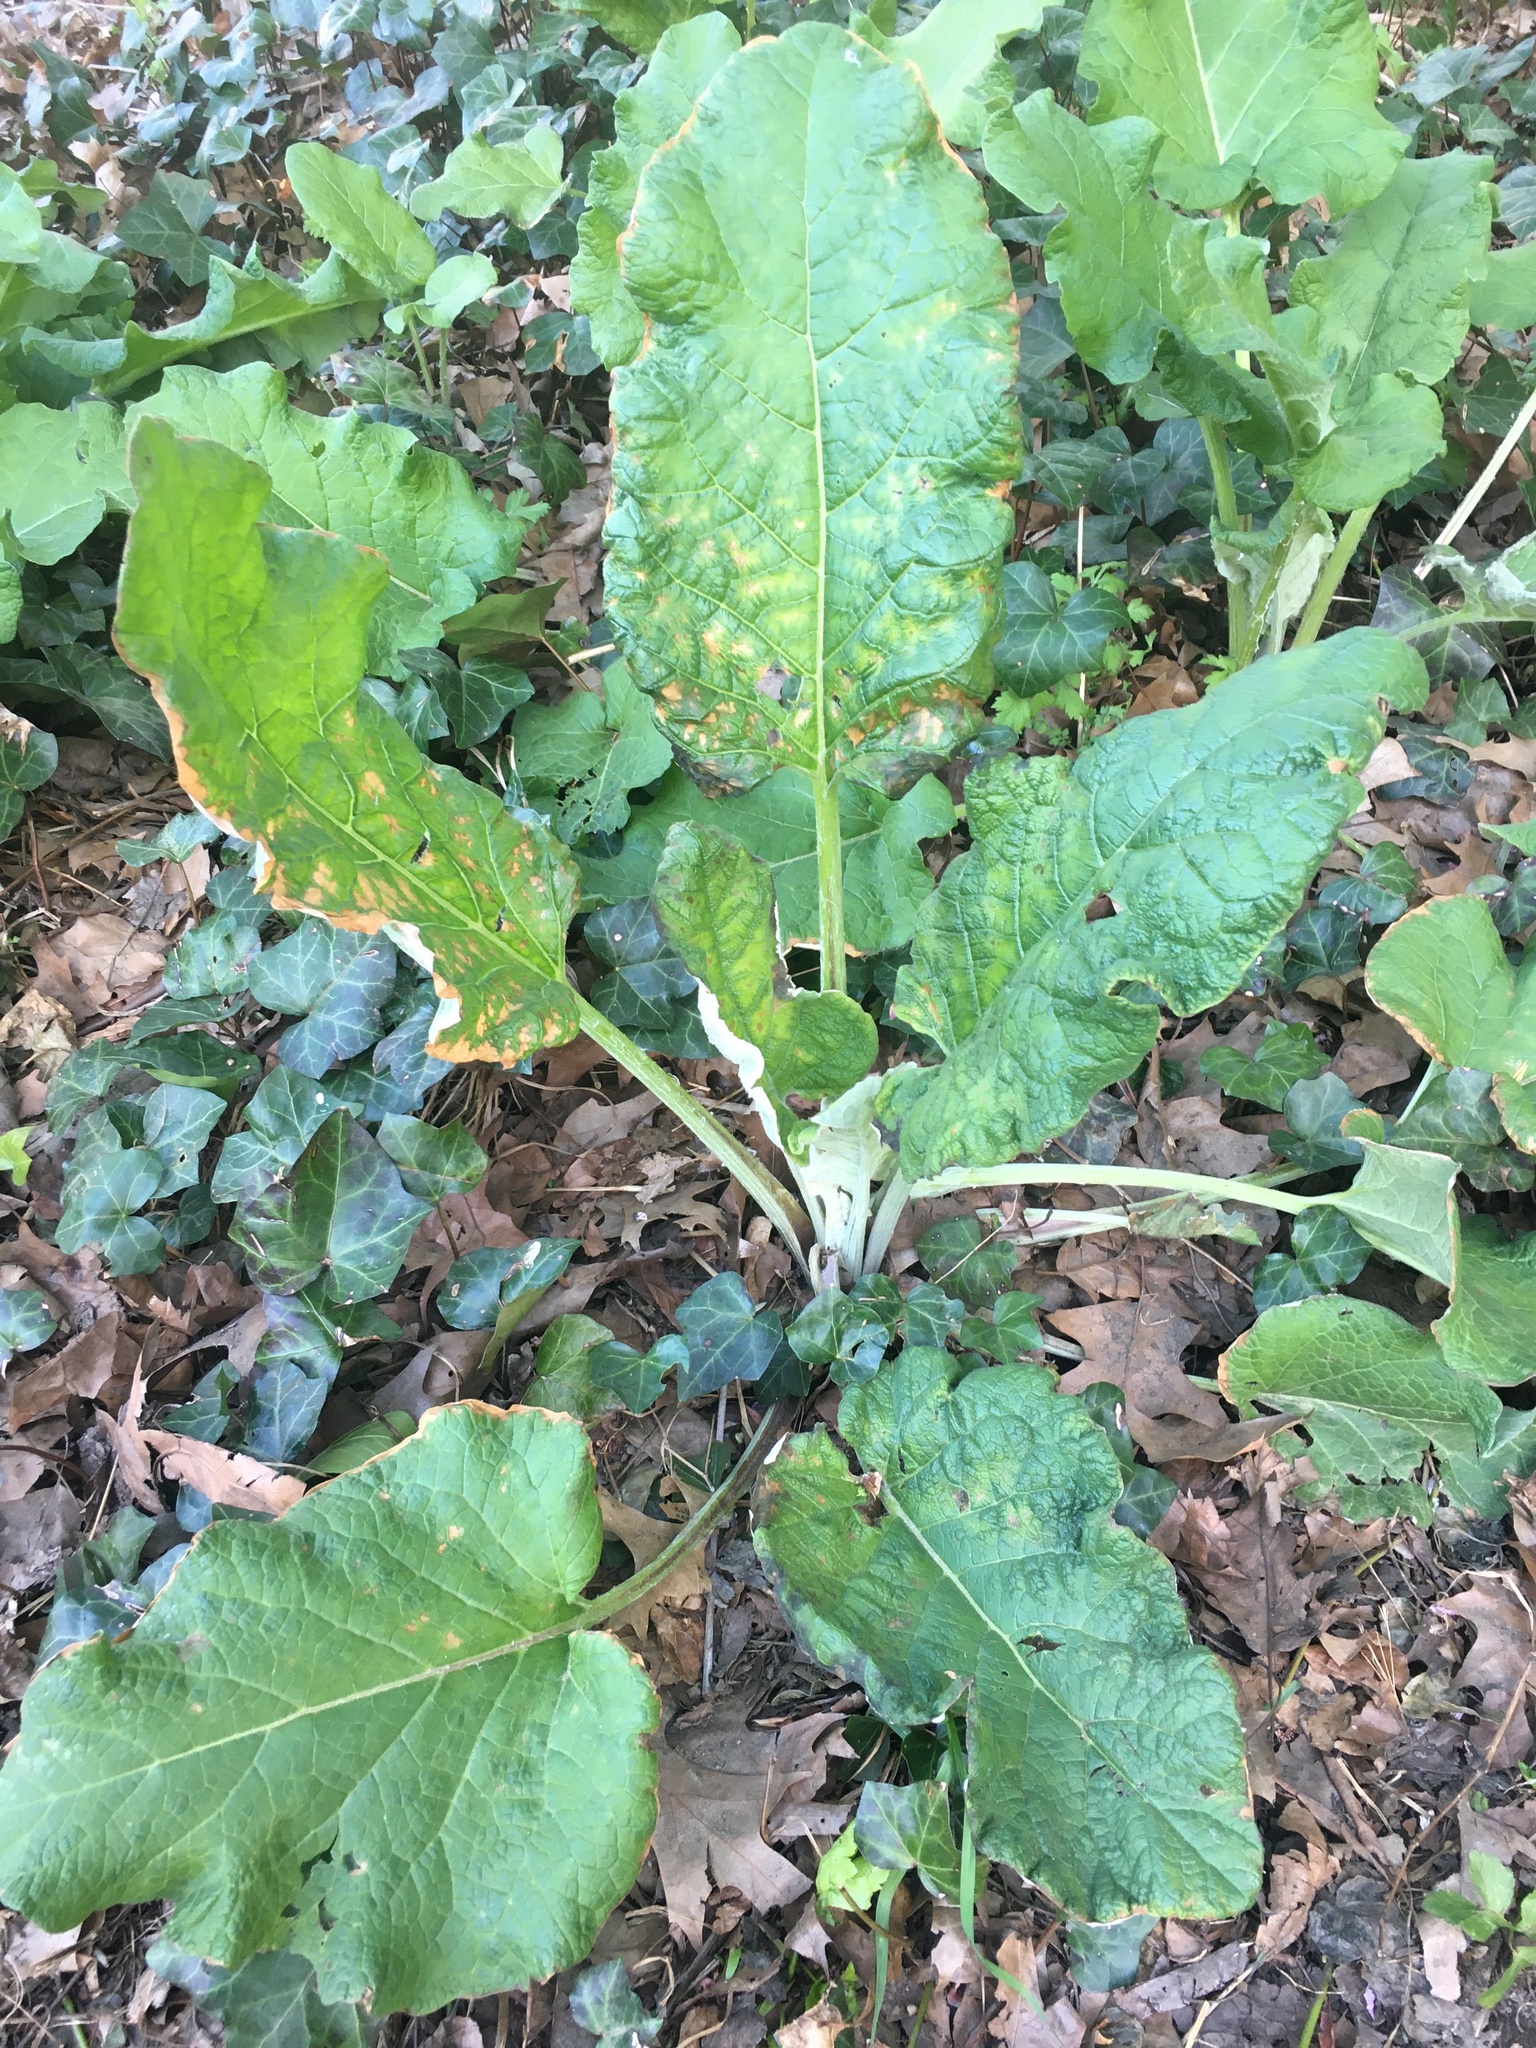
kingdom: Plantae
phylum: Tracheophyta
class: Magnoliopsida
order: Asterales
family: Asteraceae
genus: Arctium
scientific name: Arctium
